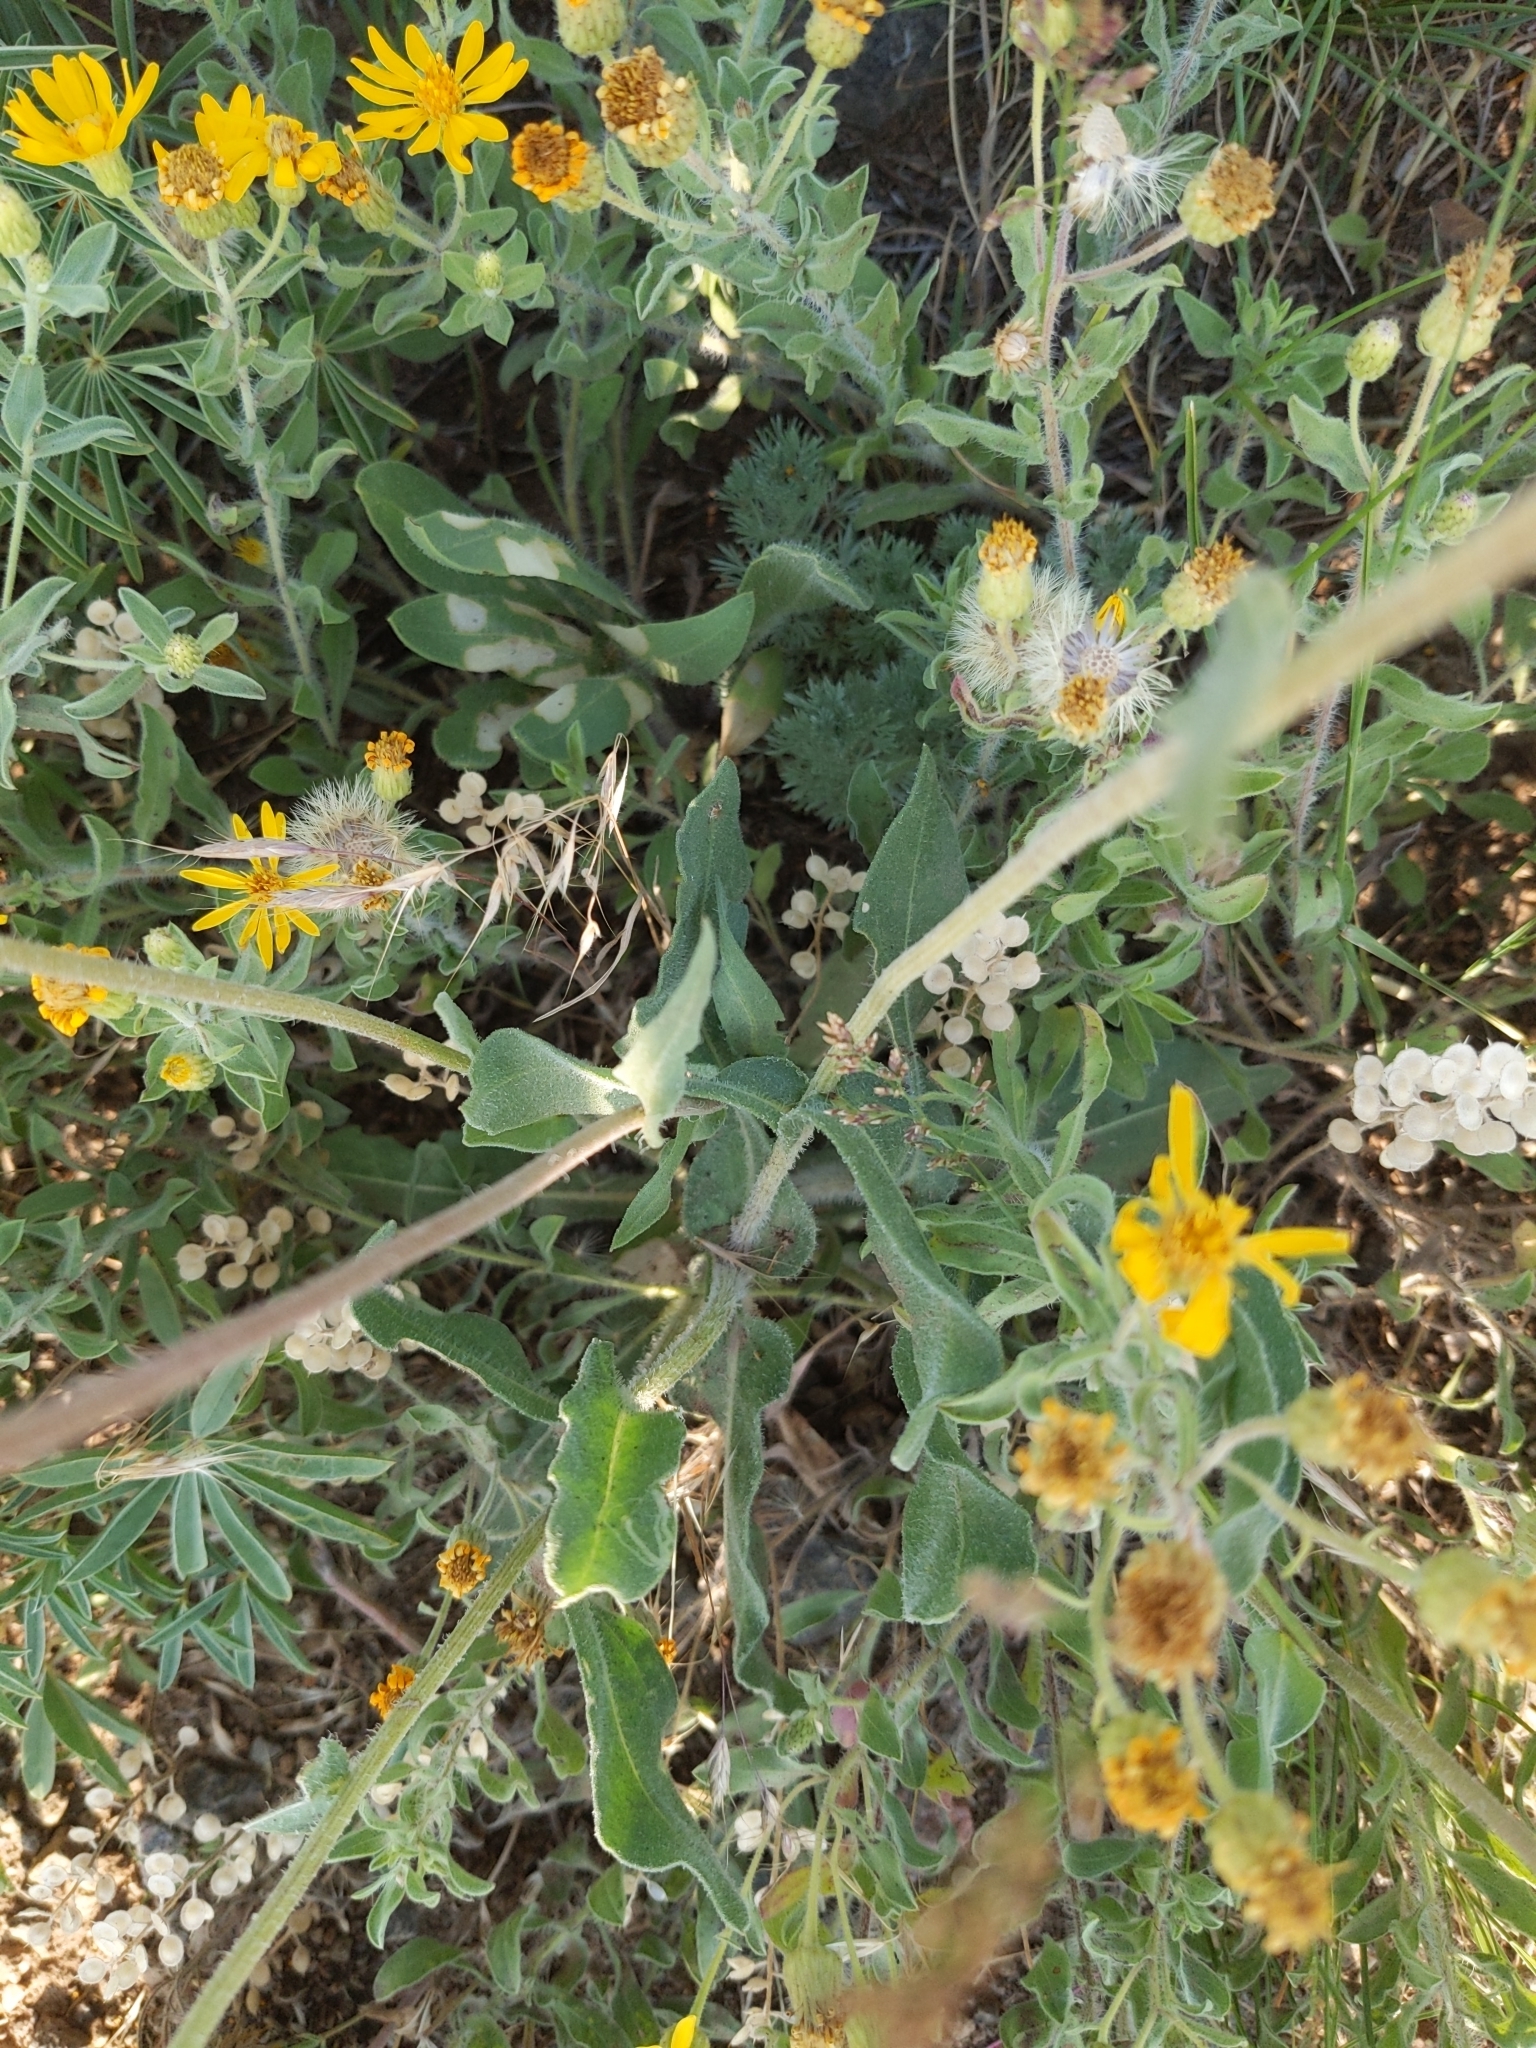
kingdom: Plantae
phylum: Tracheophyta
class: Magnoliopsida
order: Asterales
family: Asteraceae
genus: Gaillardia
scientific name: Gaillardia aristata
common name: Blanket-flower
